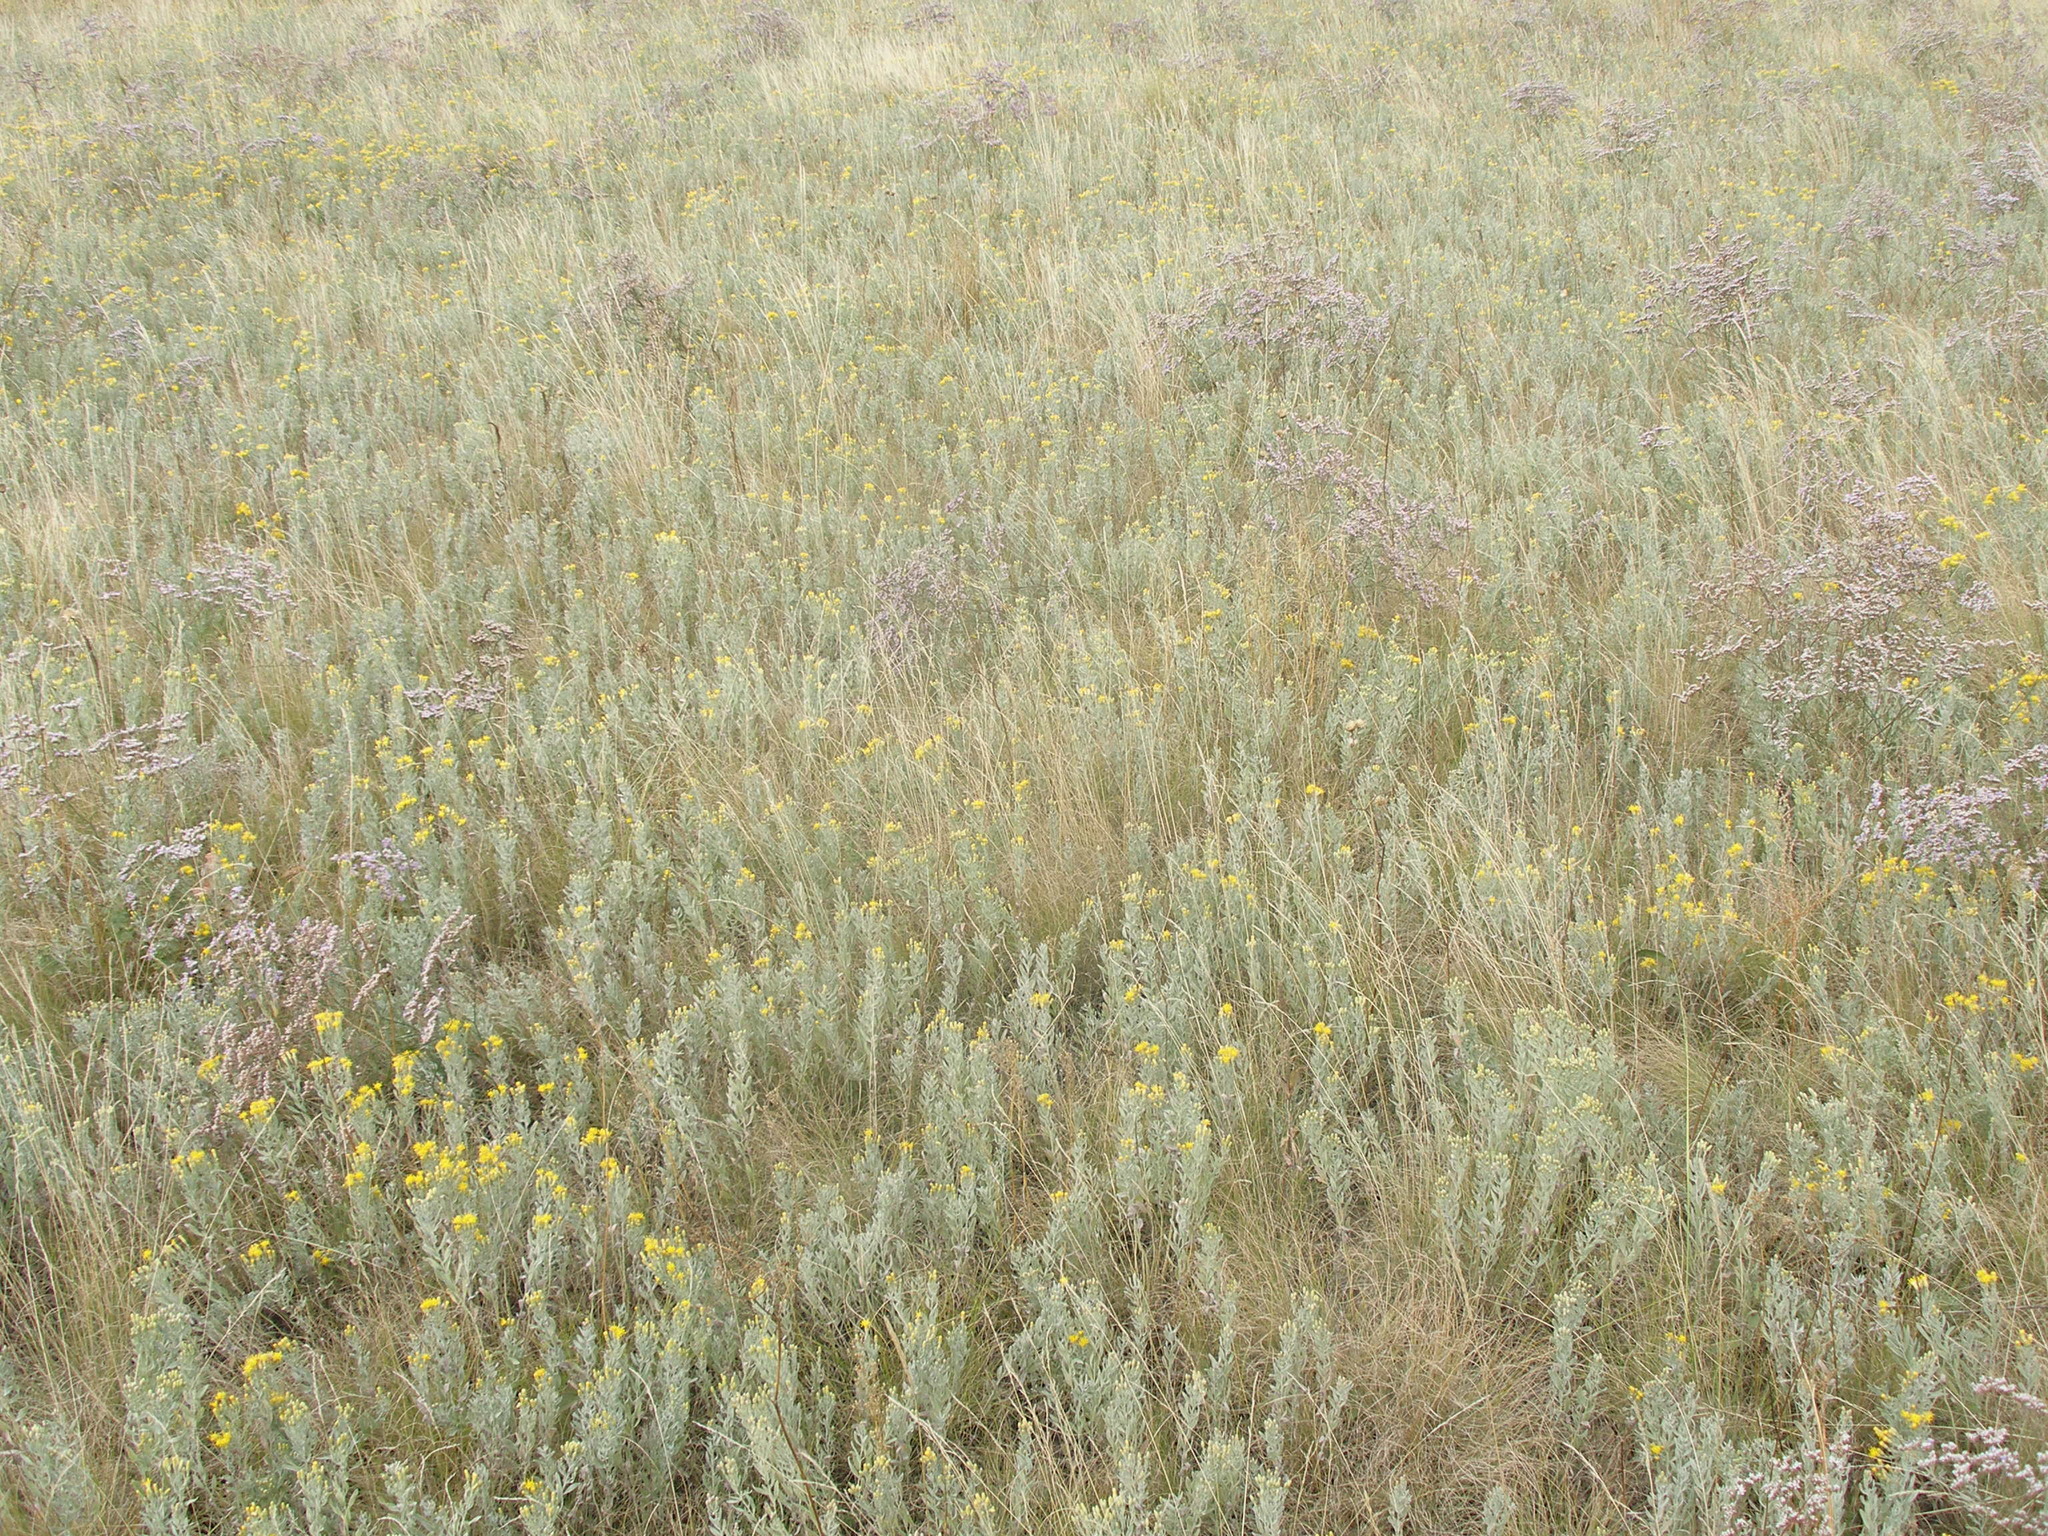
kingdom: Plantae
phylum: Tracheophyta
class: Magnoliopsida
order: Asterales
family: Asteraceae
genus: Galatella
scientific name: Galatella villosa
